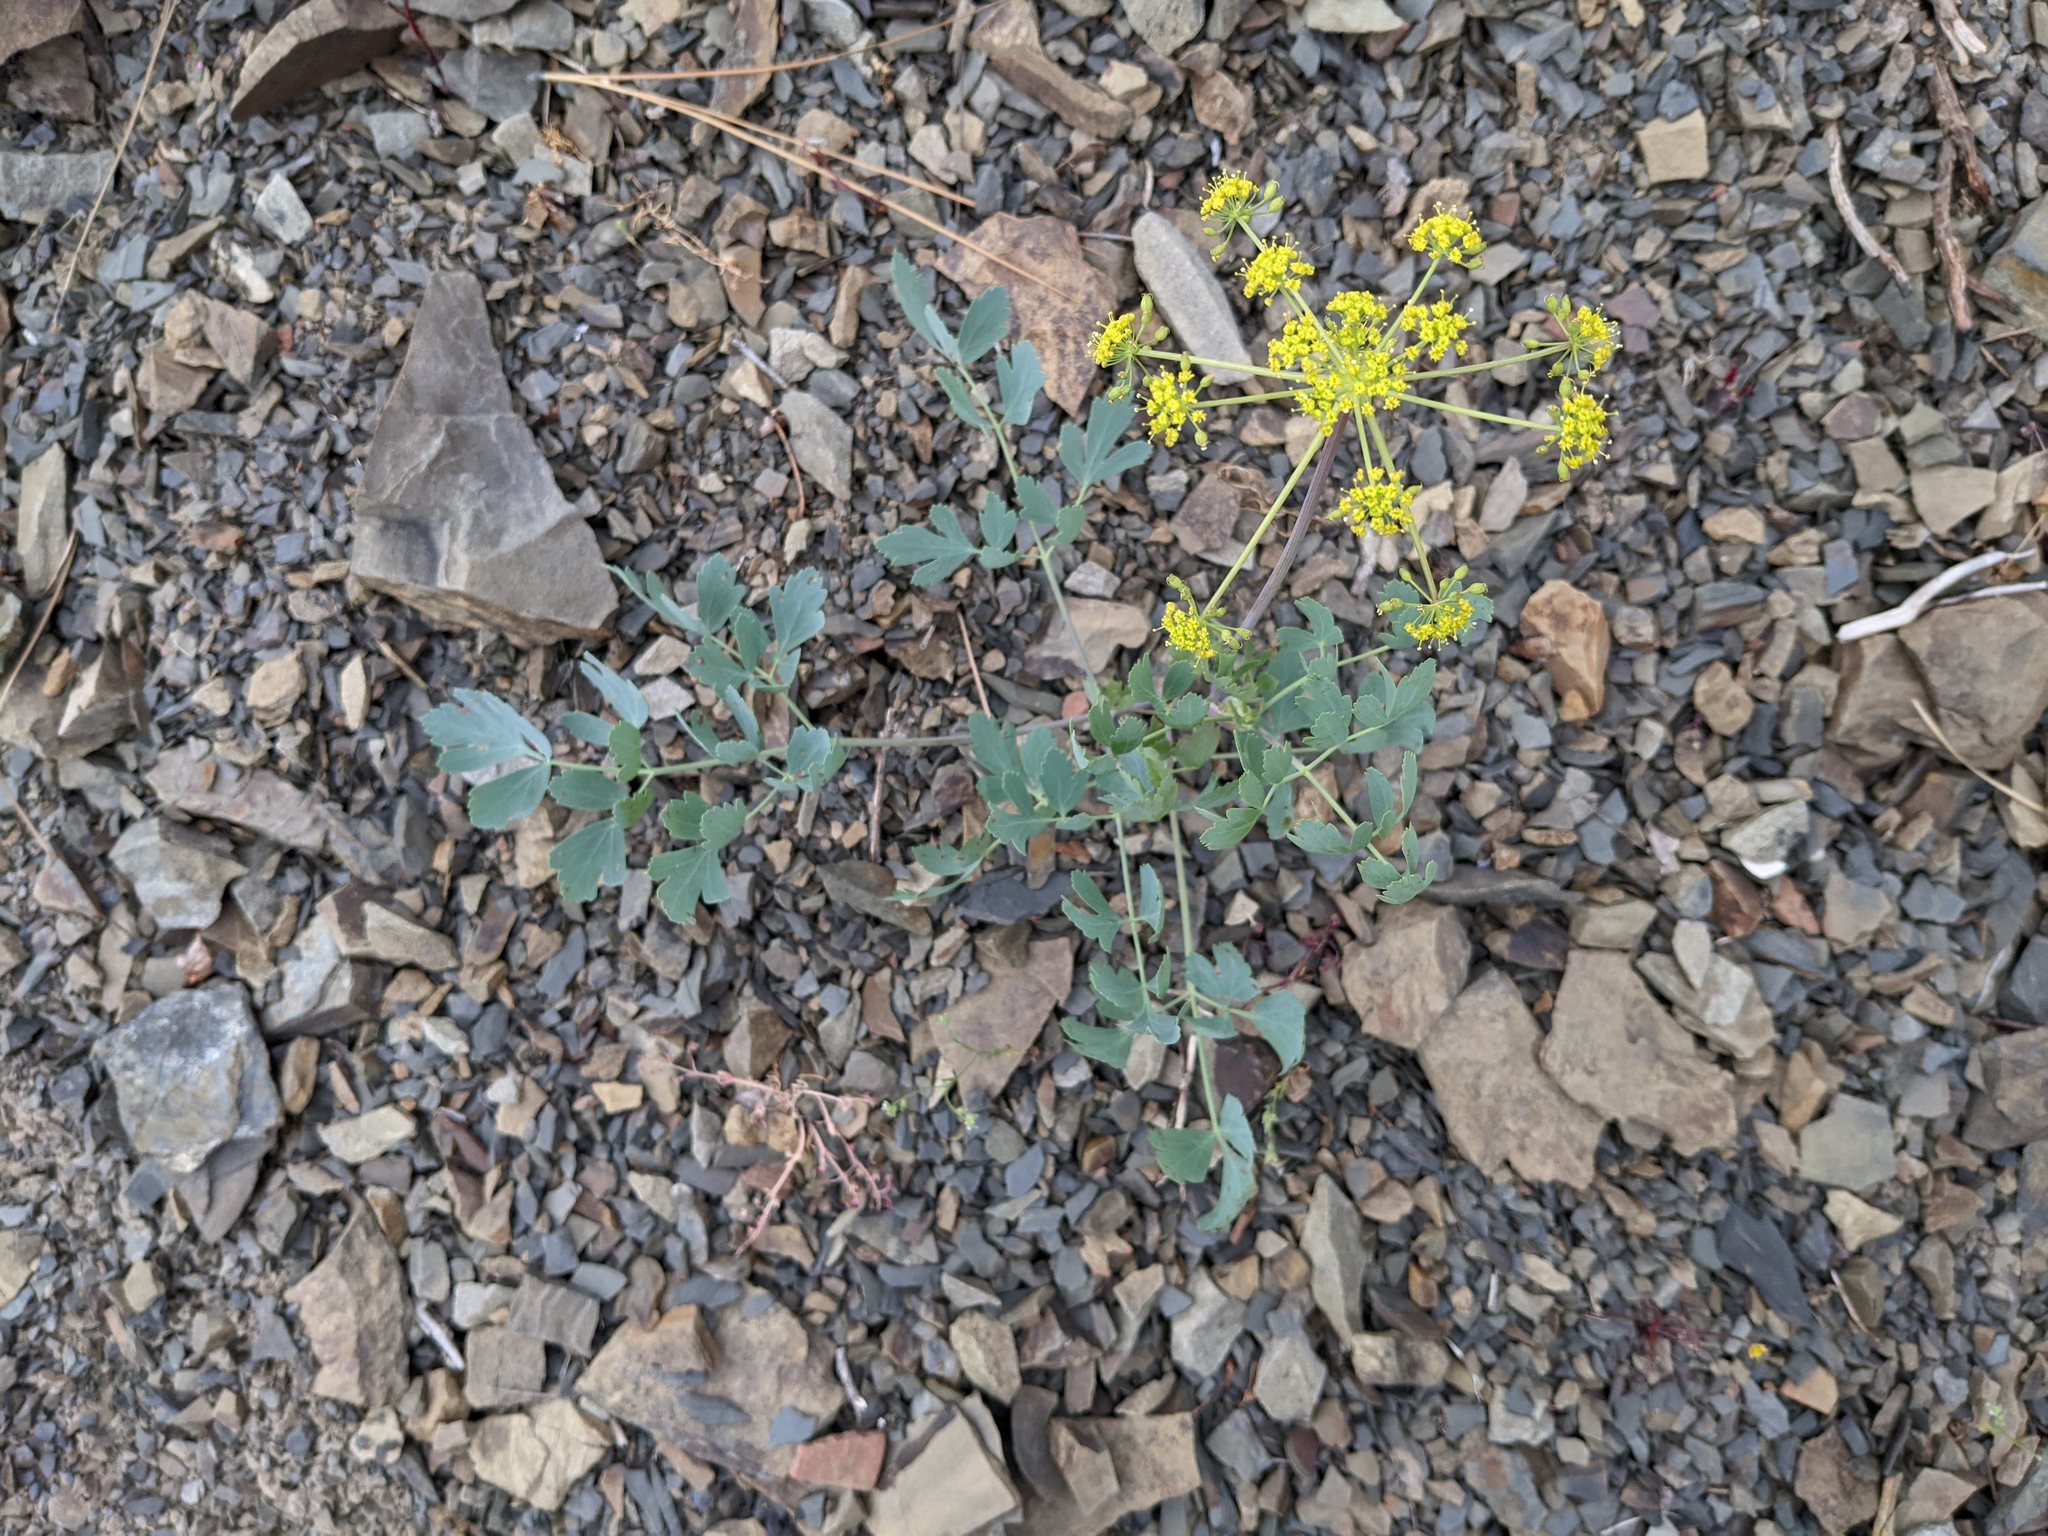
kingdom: Plantae
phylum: Tracheophyta
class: Magnoliopsida
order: Apiales
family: Apiaceae
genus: Lomatium
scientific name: Lomatium californicum
